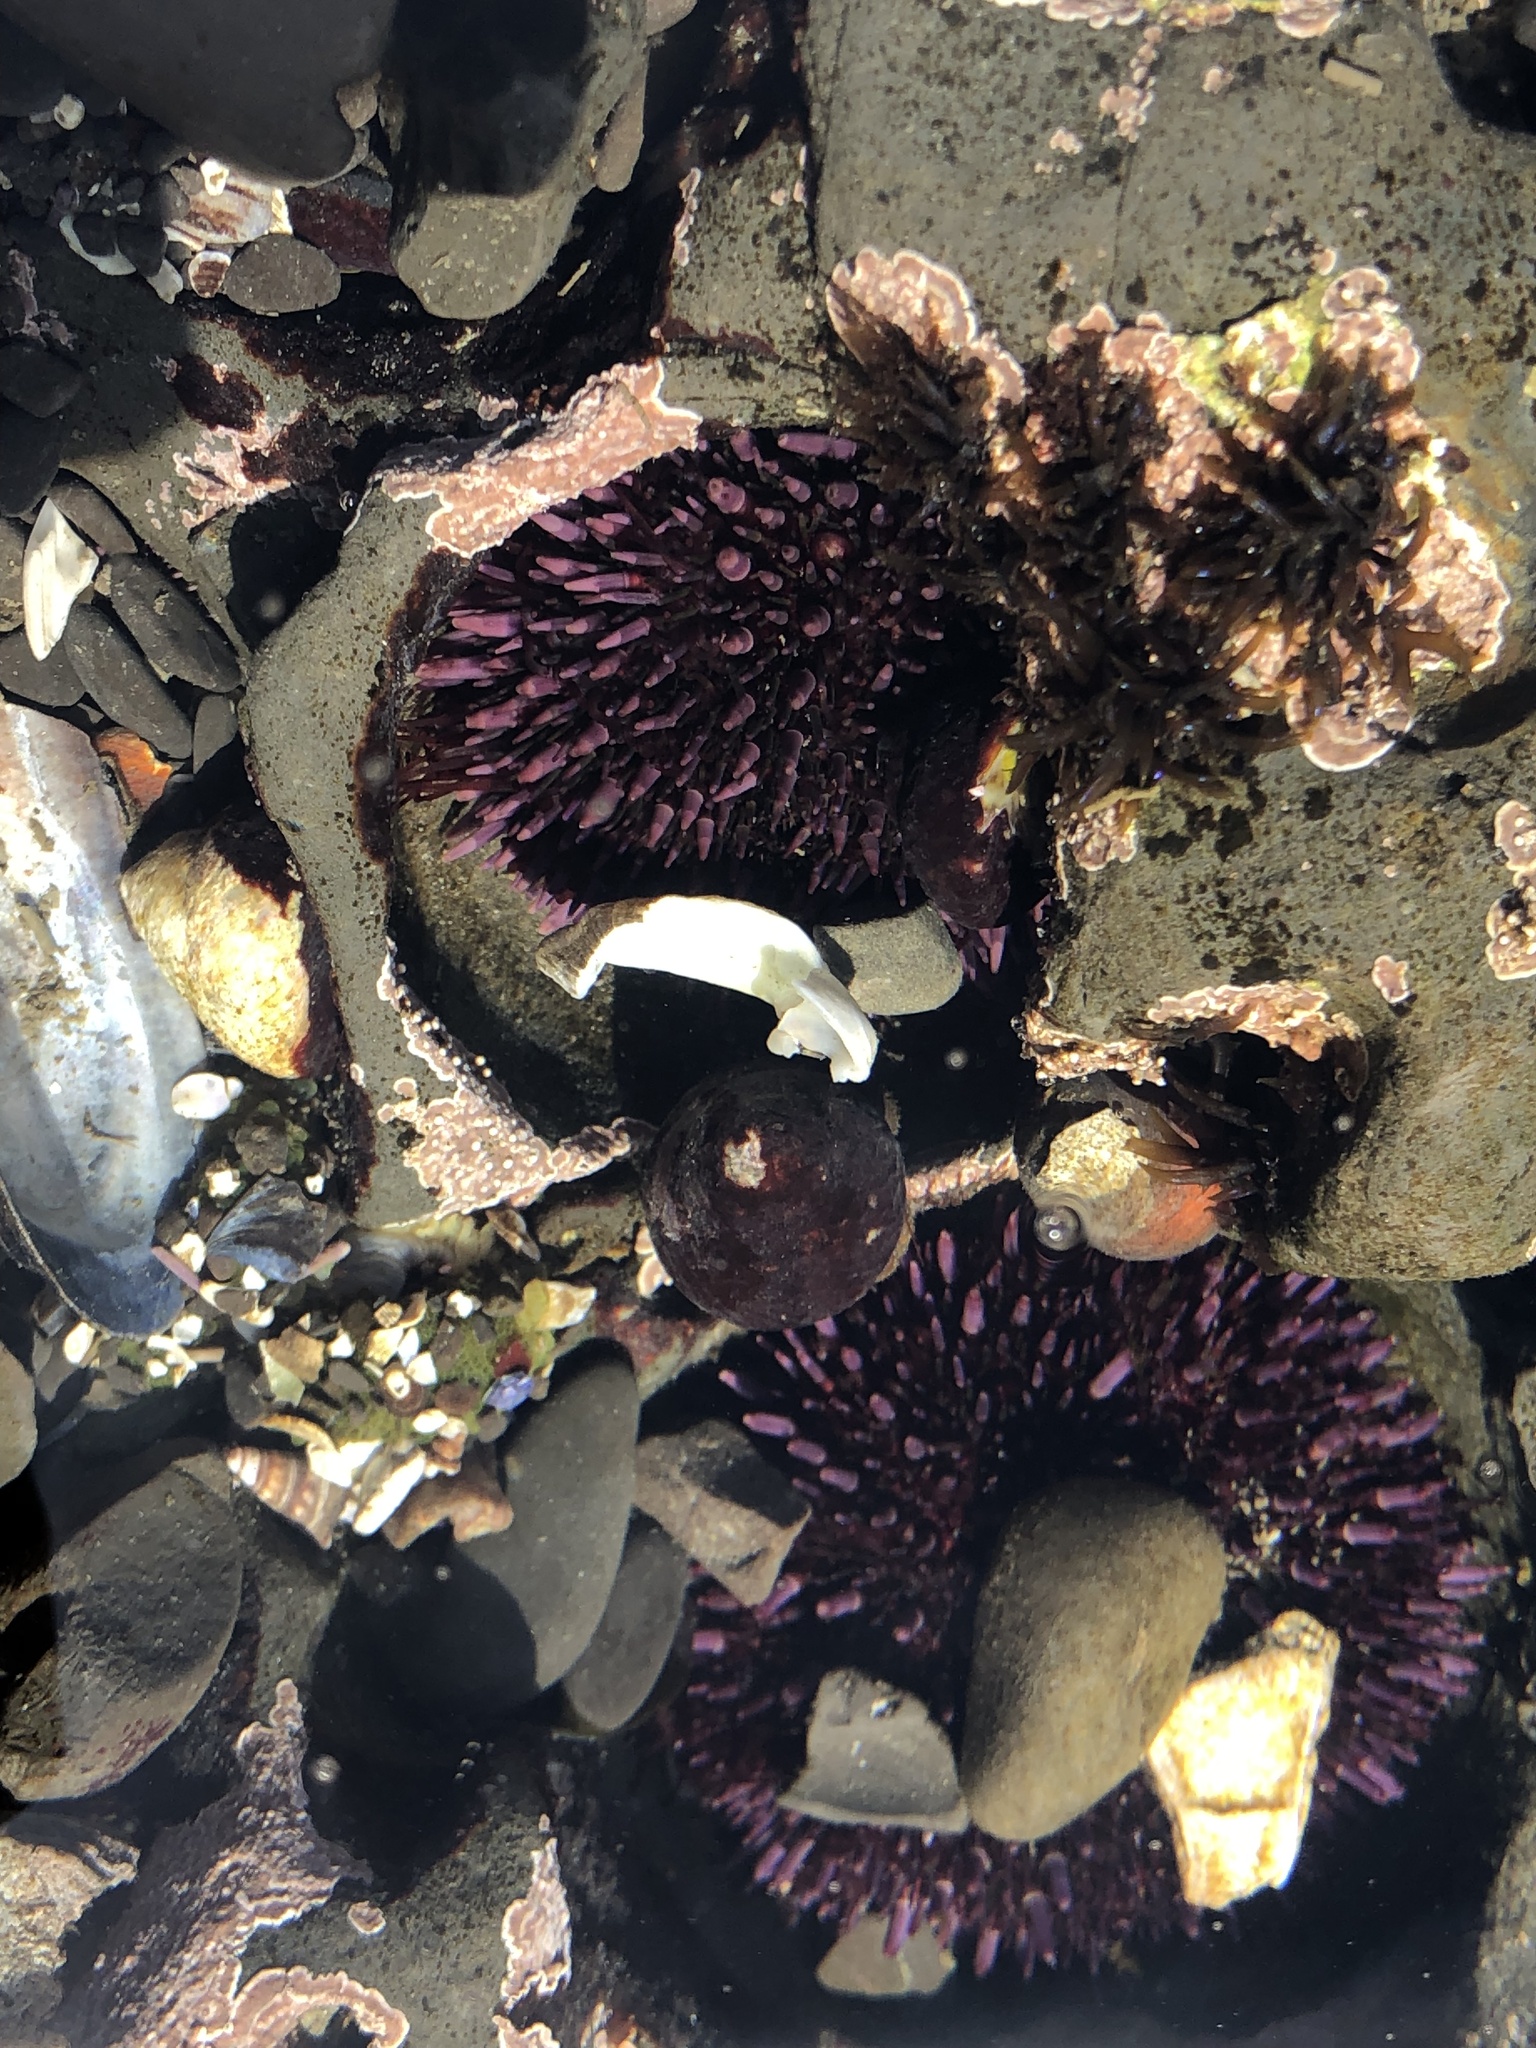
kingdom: Animalia
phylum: Echinodermata
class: Echinoidea
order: Camarodonta
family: Strongylocentrotidae
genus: Strongylocentrotus
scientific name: Strongylocentrotus purpuratus
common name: Purple sea urchin
